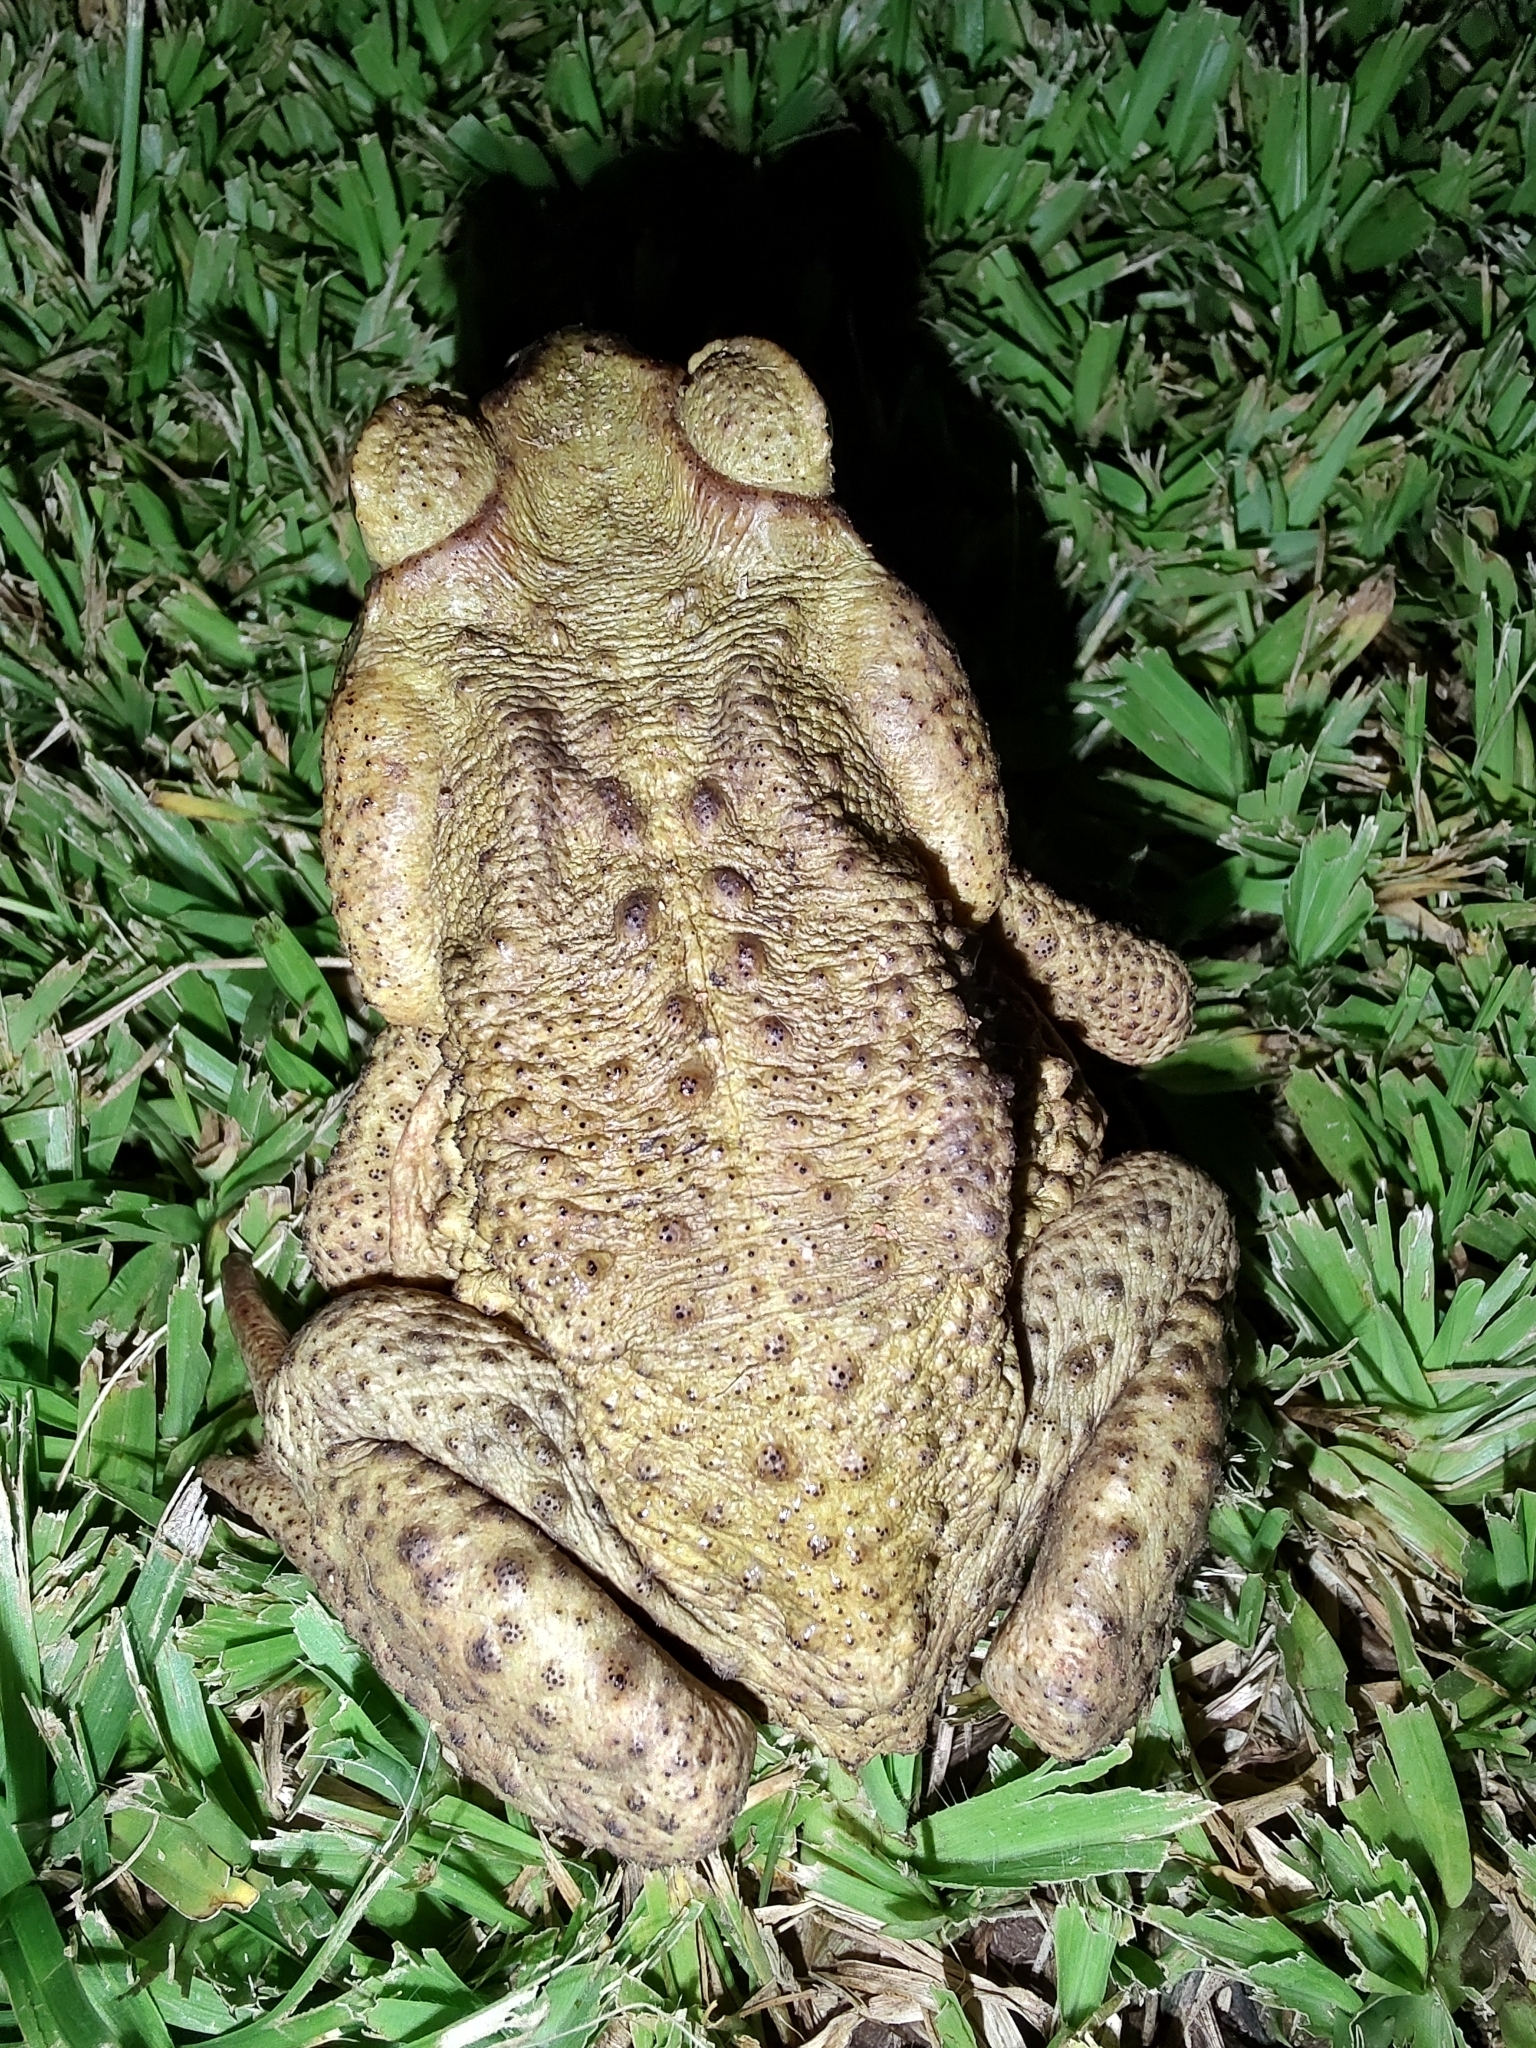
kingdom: Animalia
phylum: Chordata
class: Amphibia
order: Anura
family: Bufonidae
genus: Rhinella
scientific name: Rhinella icterica
